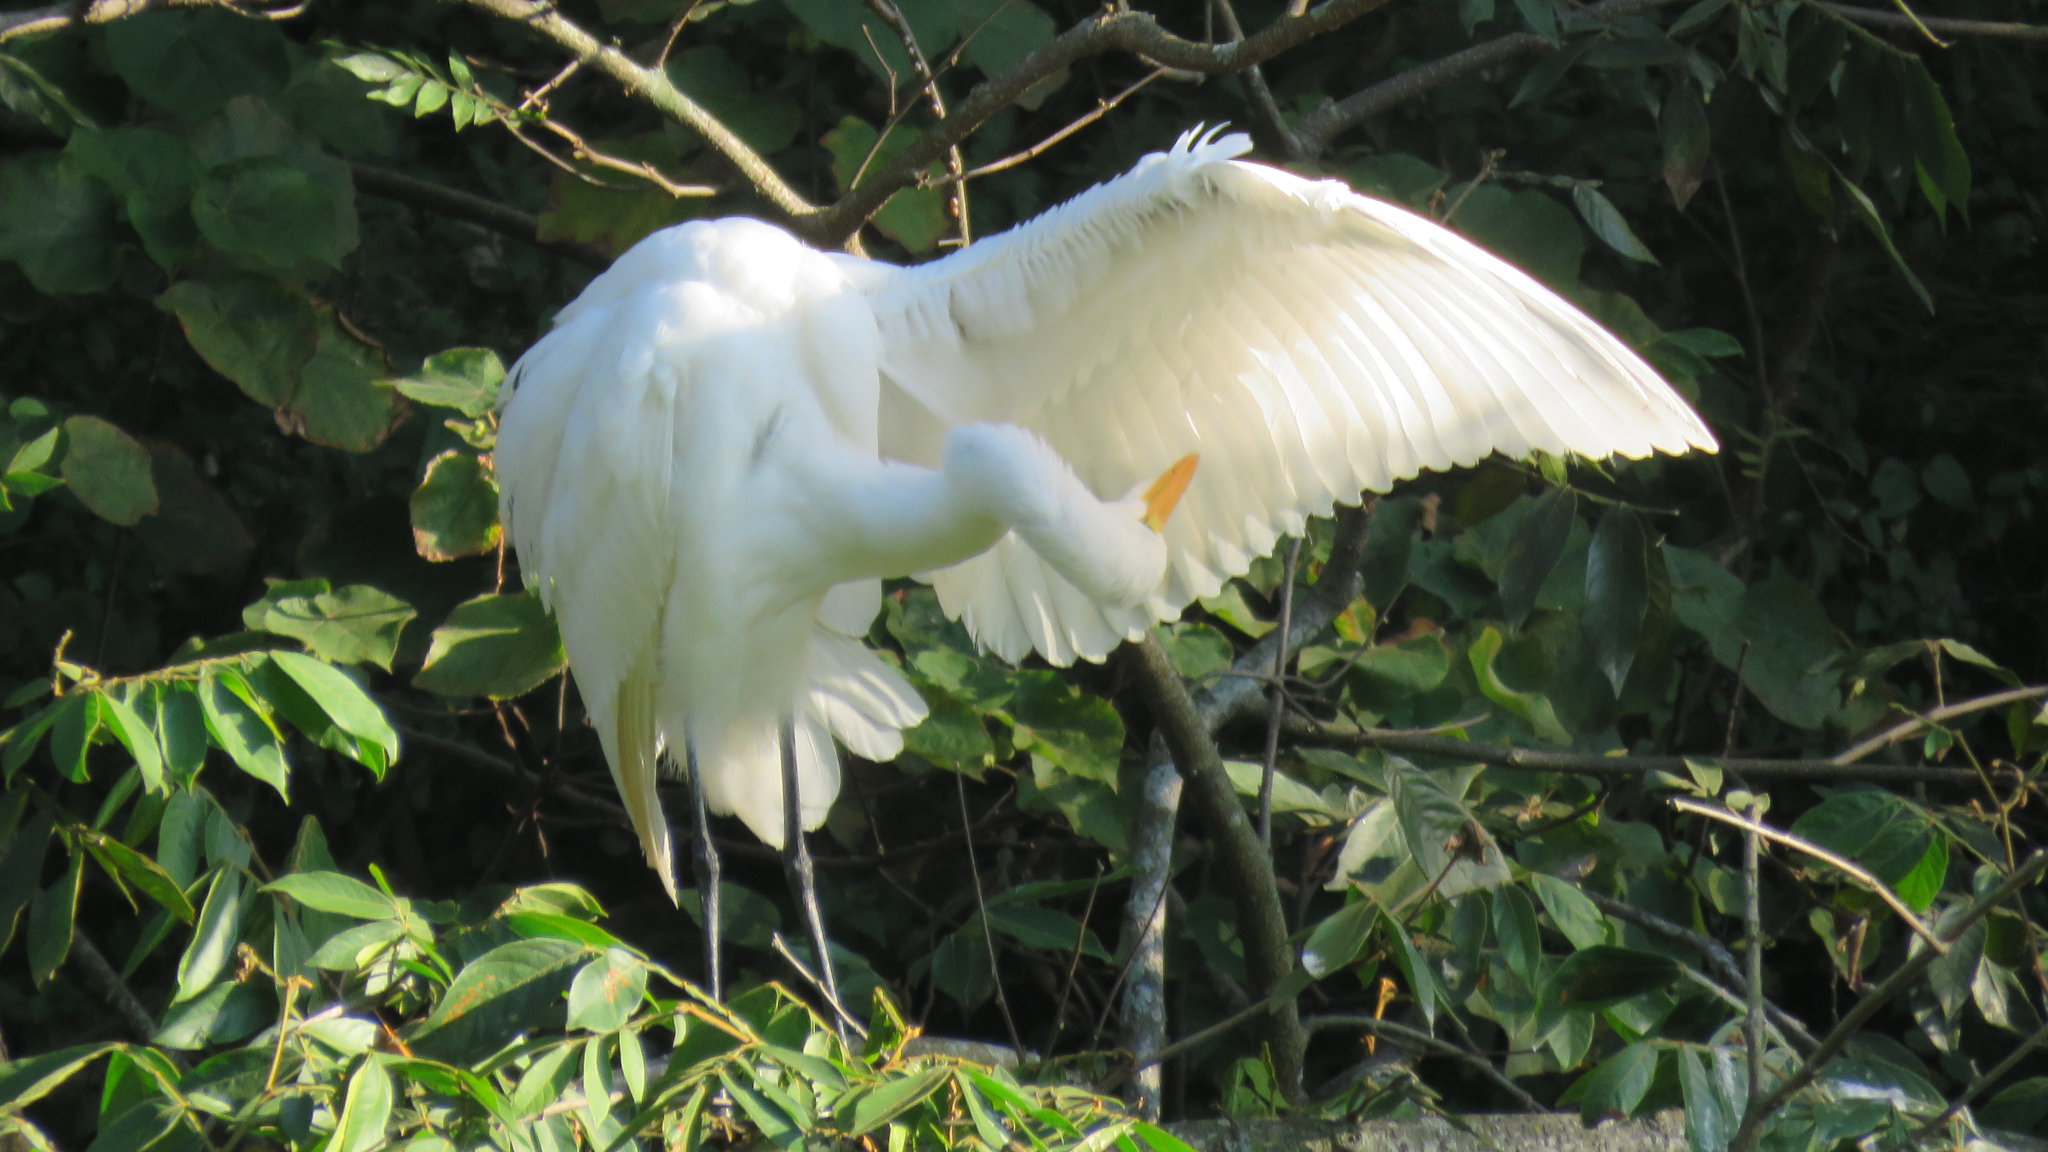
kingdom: Animalia
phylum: Chordata
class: Aves
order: Pelecaniformes
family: Ardeidae
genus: Ardea
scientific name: Ardea alba
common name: Great egret
